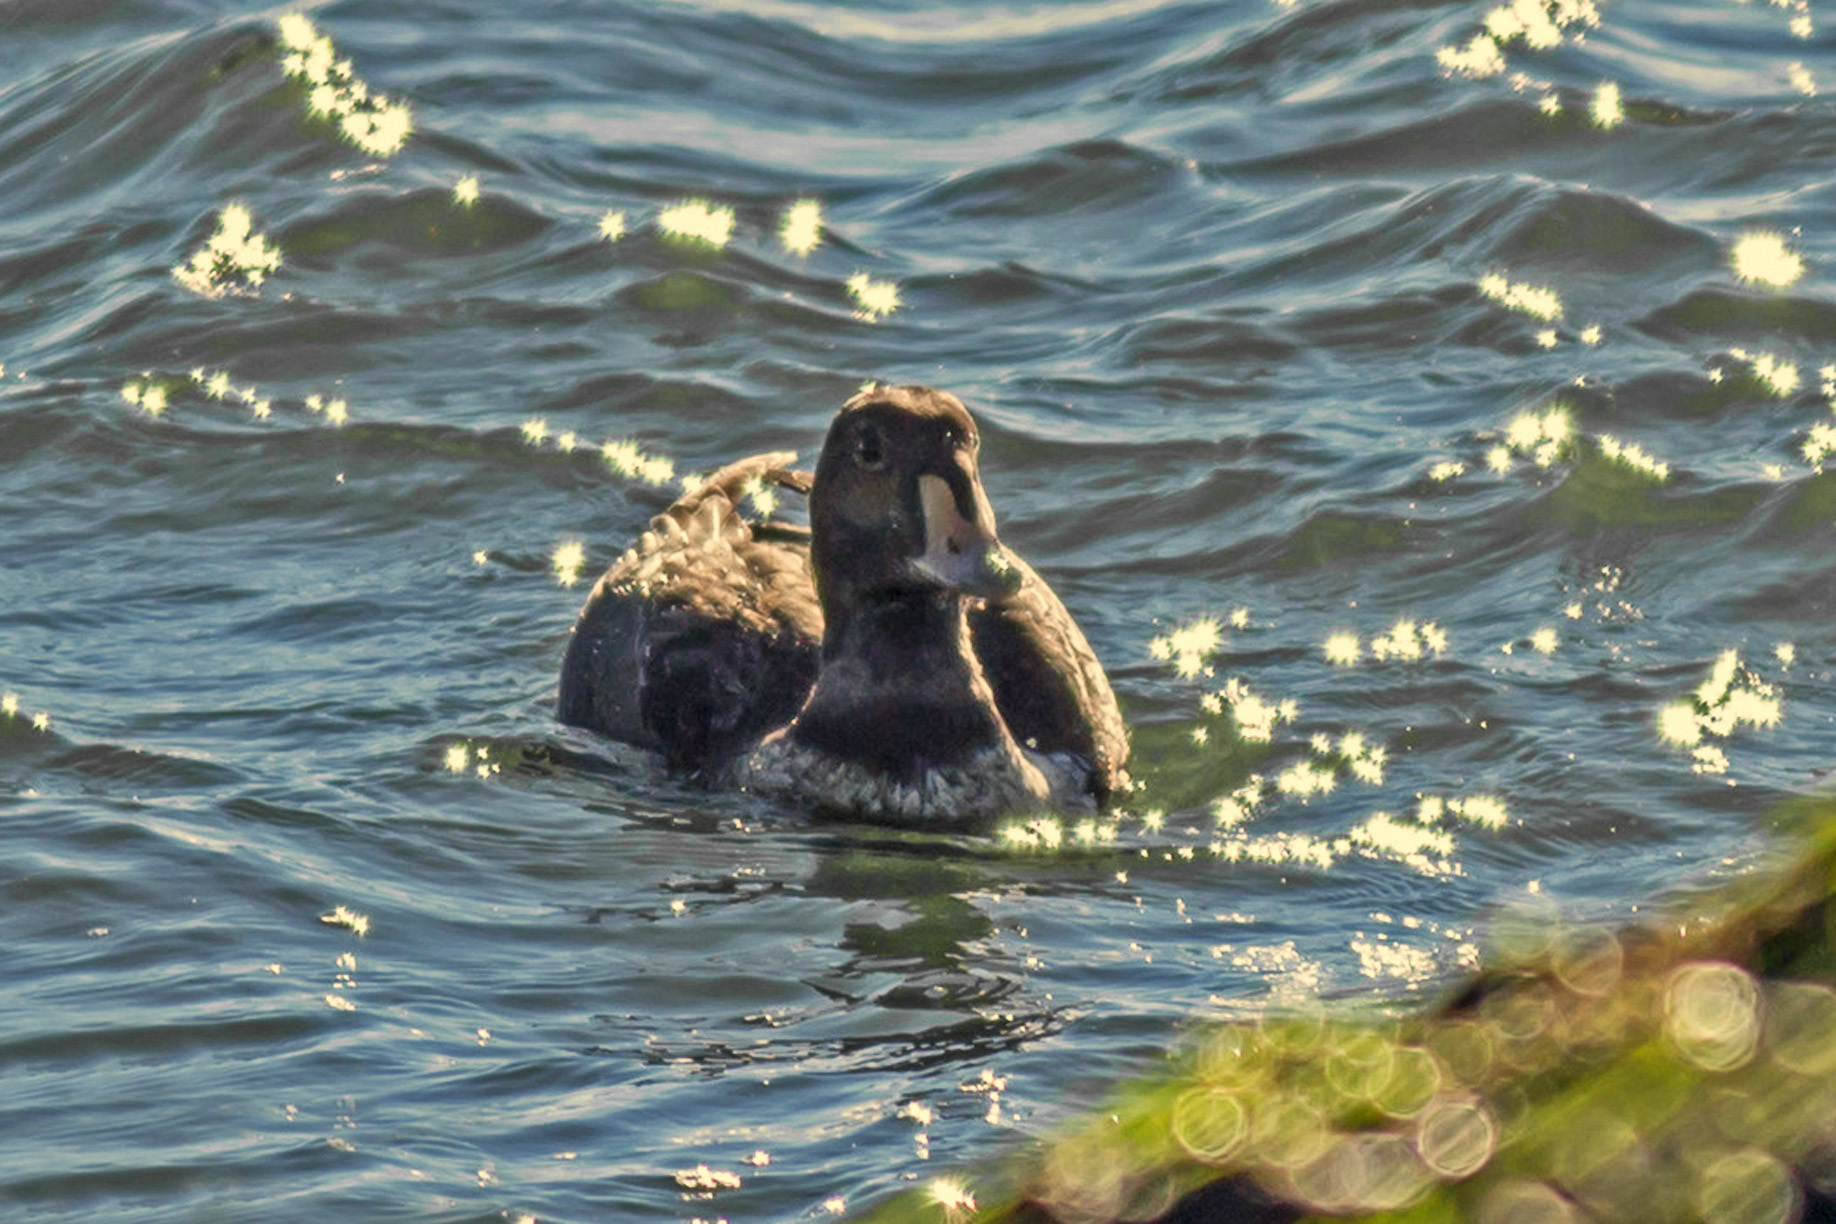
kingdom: Animalia
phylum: Chordata
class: Aves
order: Anseriformes
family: Anatidae
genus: Somateria
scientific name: Somateria spectabilis
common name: King eider
